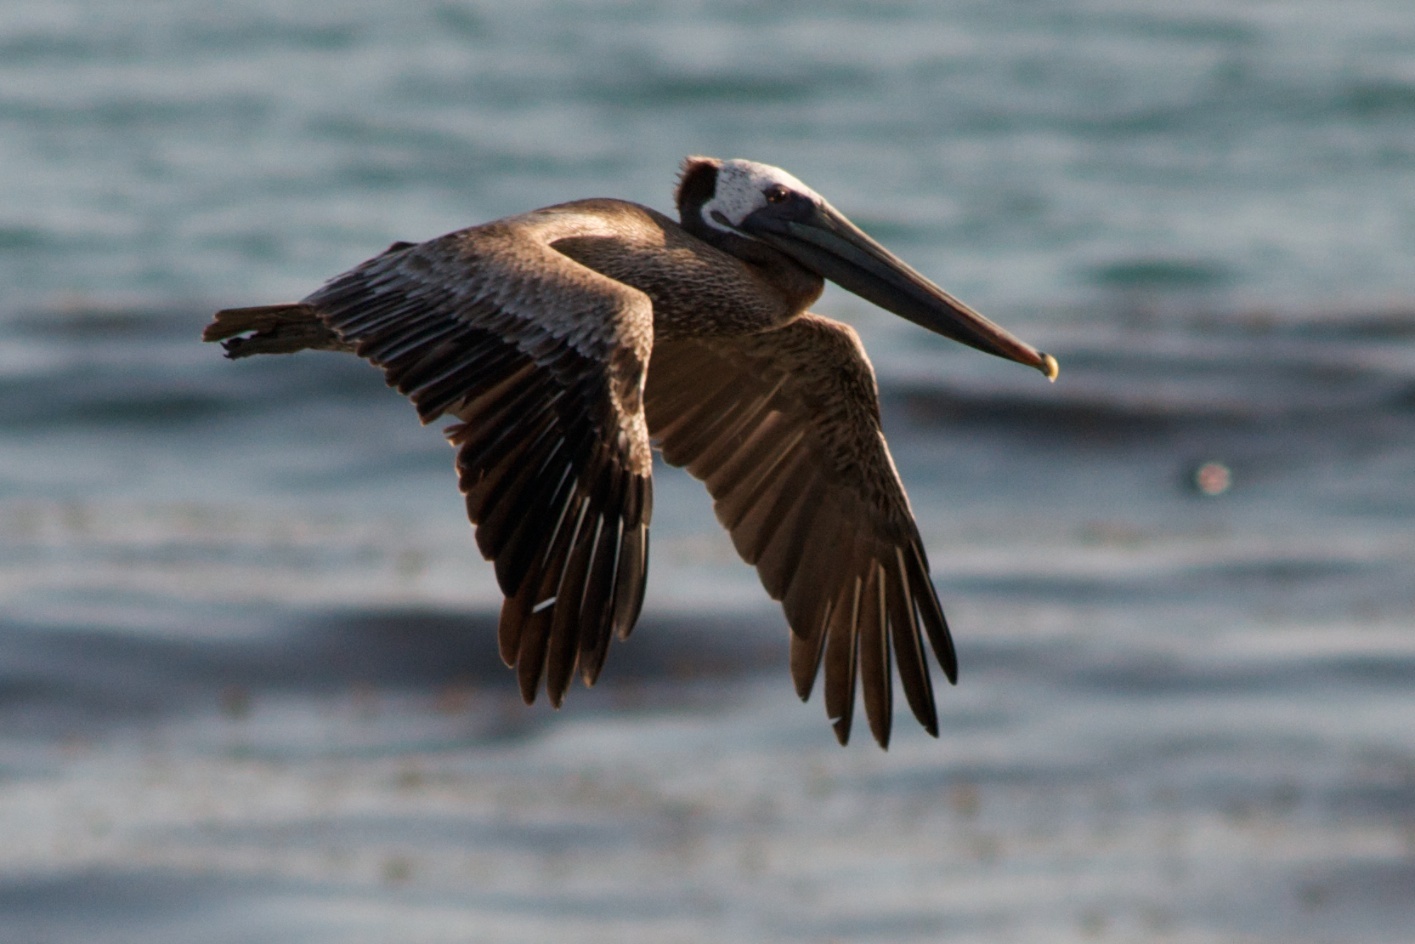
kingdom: Animalia
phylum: Chordata
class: Aves
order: Pelecaniformes
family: Pelecanidae
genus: Pelecanus
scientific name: Pelecanus occidentalis
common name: Brown pelican
